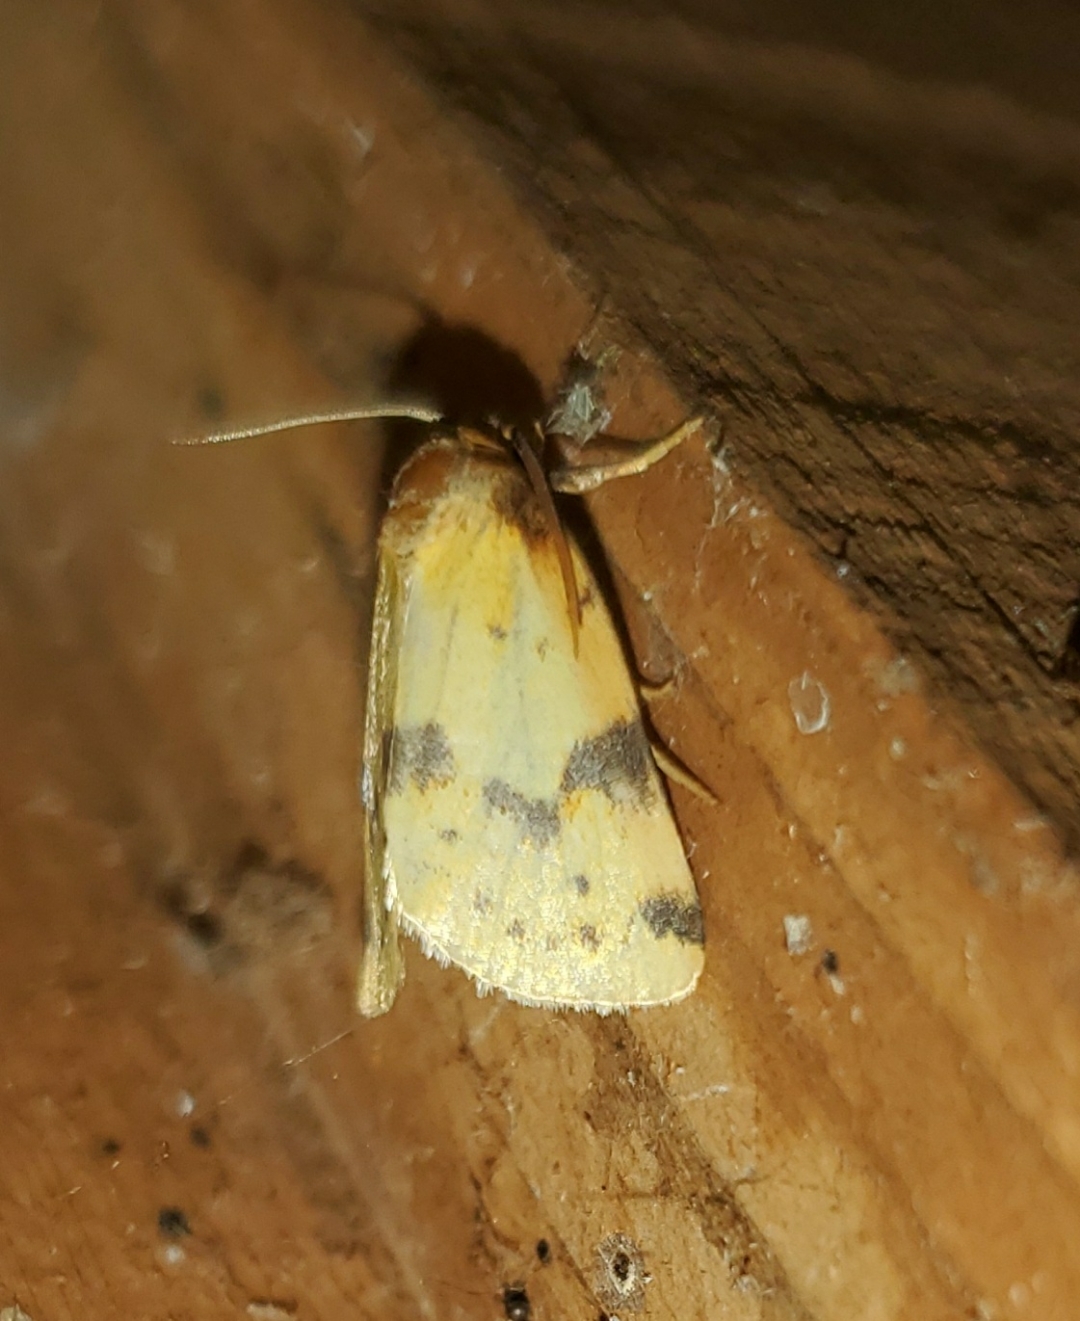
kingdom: Animalia
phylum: Arthropoda
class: Insecta
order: Lepidoptera
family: Noctuidae
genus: Azenia
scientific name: Azenia obtusa
